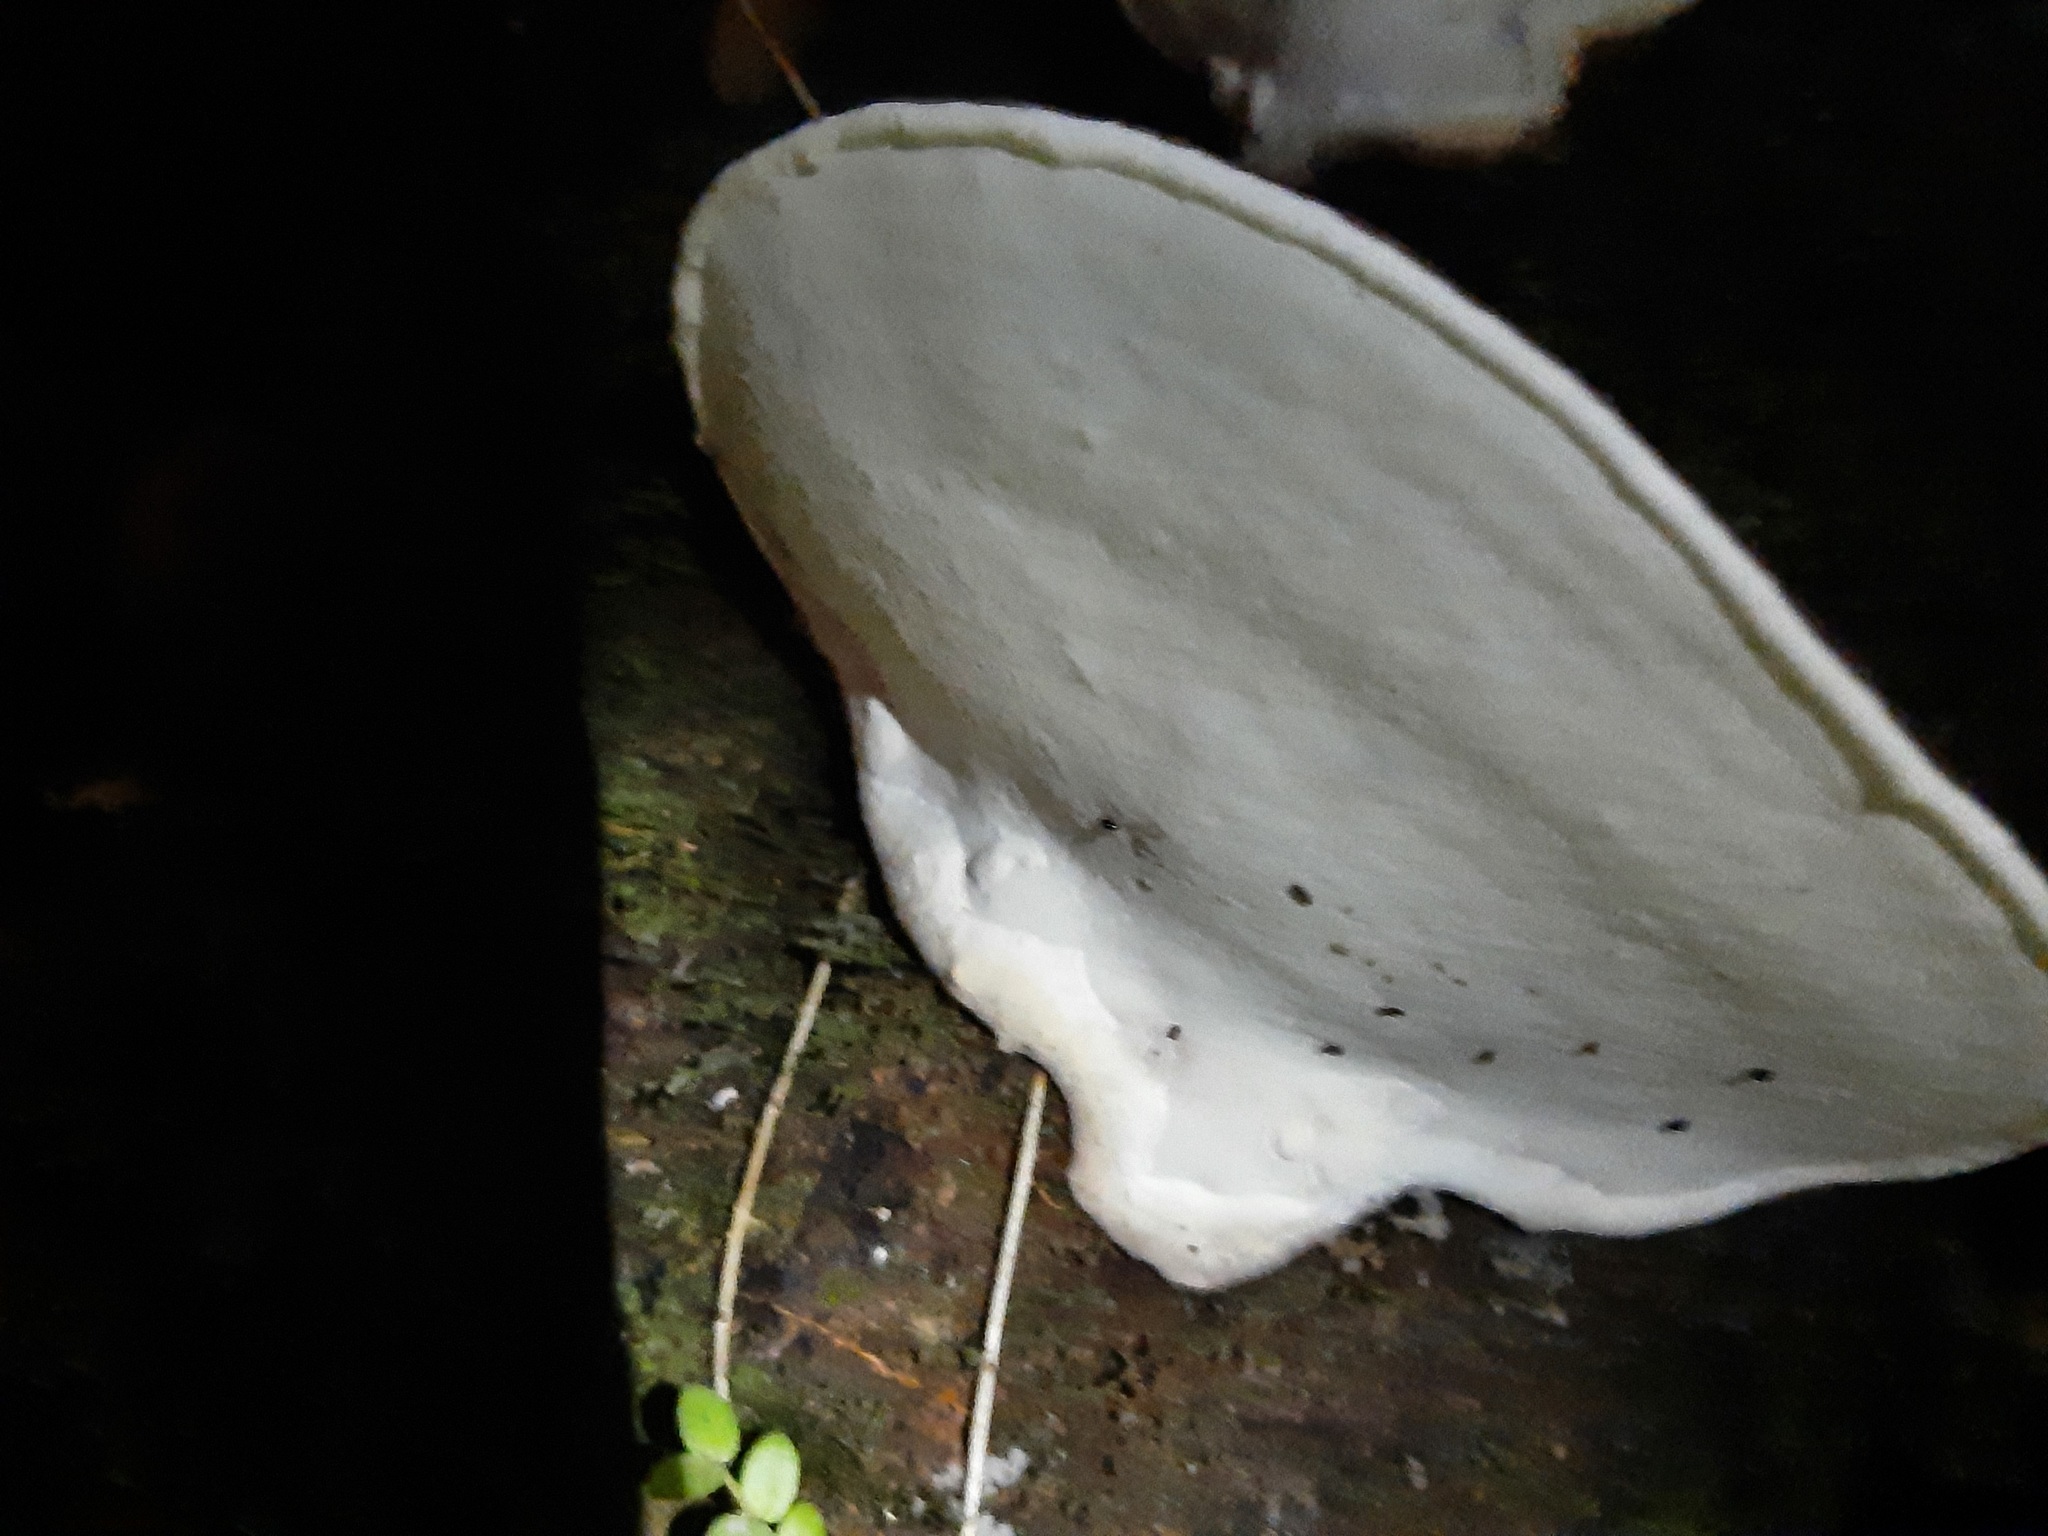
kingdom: Fungi
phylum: Basidiomycota
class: Agaricomycetes
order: Polyporales
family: Fomitopsidaceae
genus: Pilatoporus
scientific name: Pilatoporus hemitephrus
